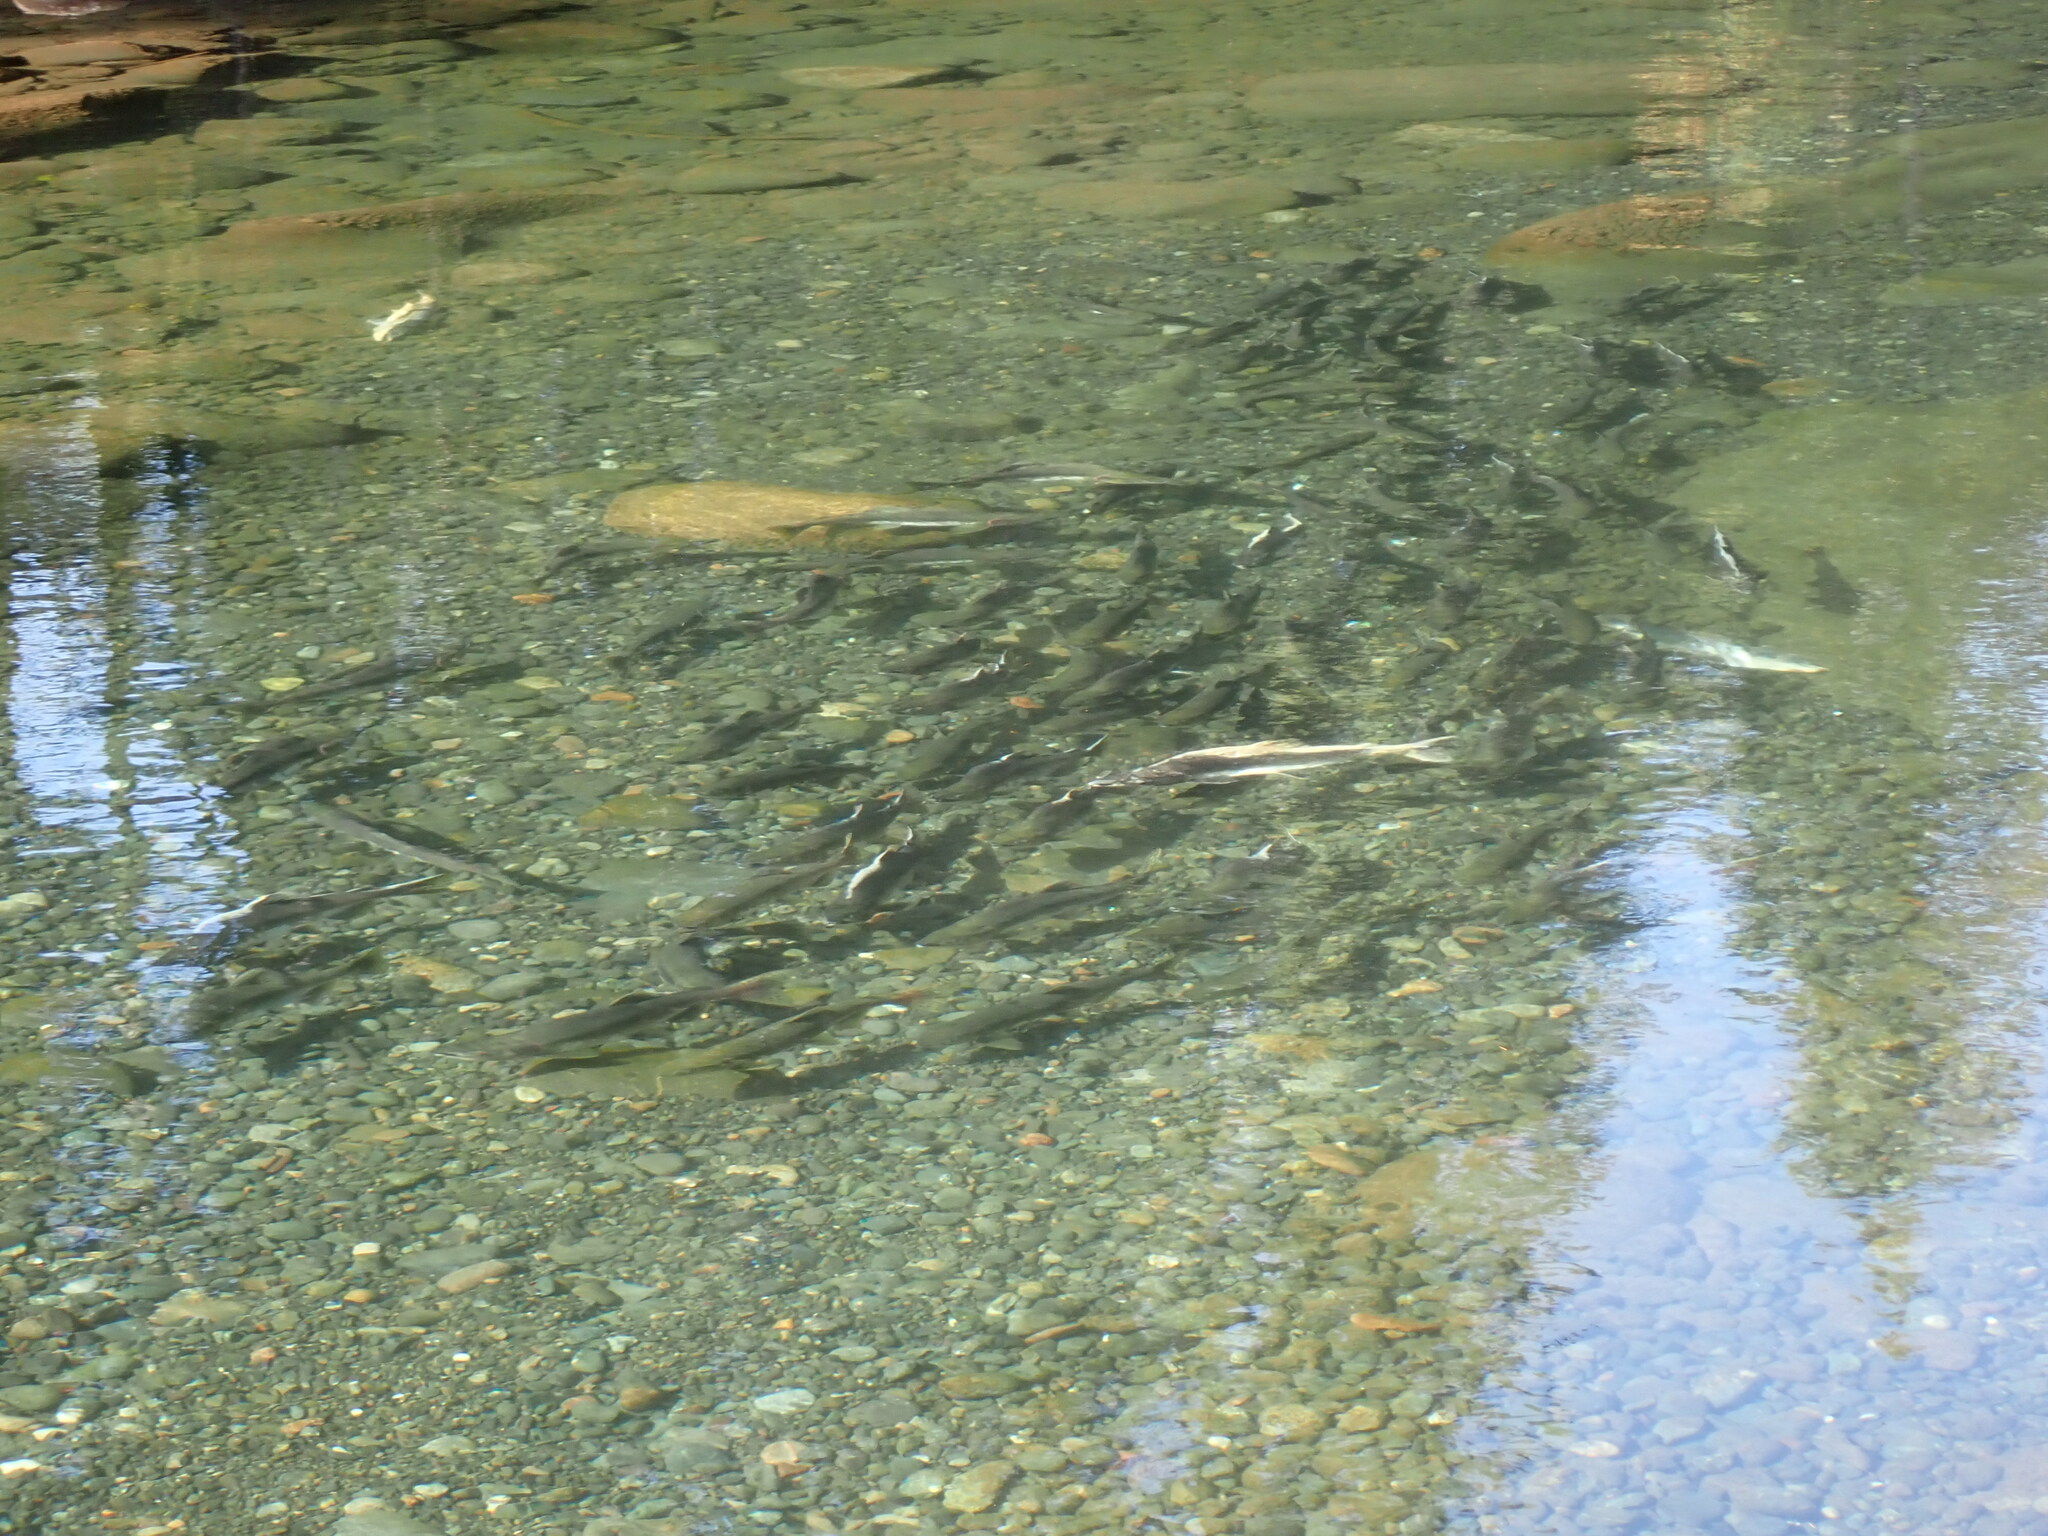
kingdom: Animalia
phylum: Chordata
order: Salmoniformes
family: Salmonidae
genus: Oncorhynchus
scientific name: Oncorhynchus gorbuscha
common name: Humpback salmon
